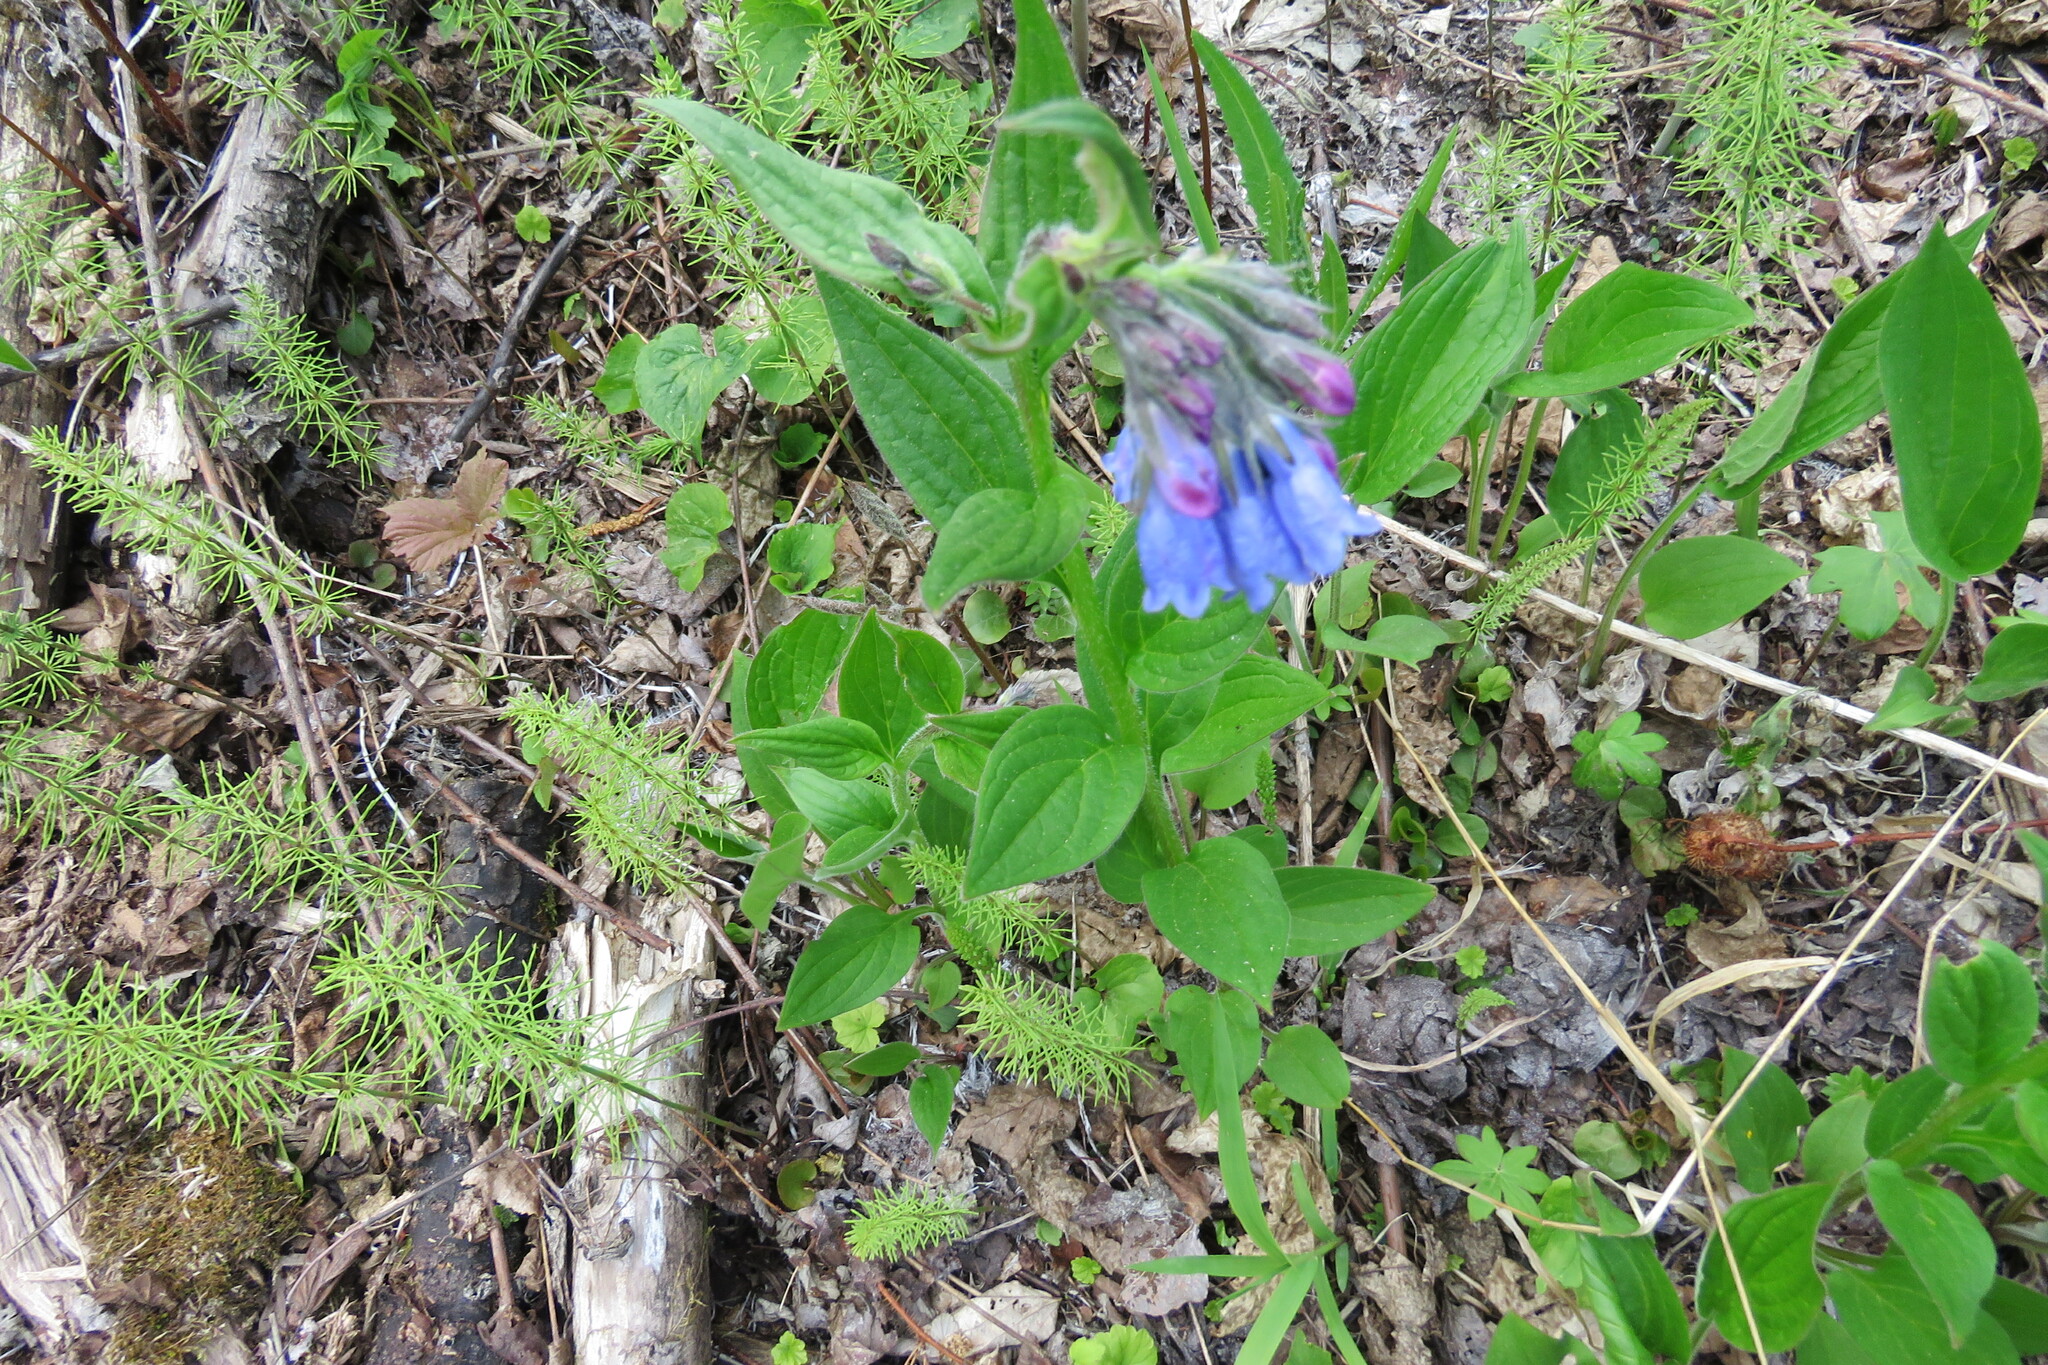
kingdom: Plantae
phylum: Tracheophyta
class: Magnoliopsida
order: Boraginales
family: Boraginaceae
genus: Mertensia
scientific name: Mertensia paniculata
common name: Panicled bluebells
